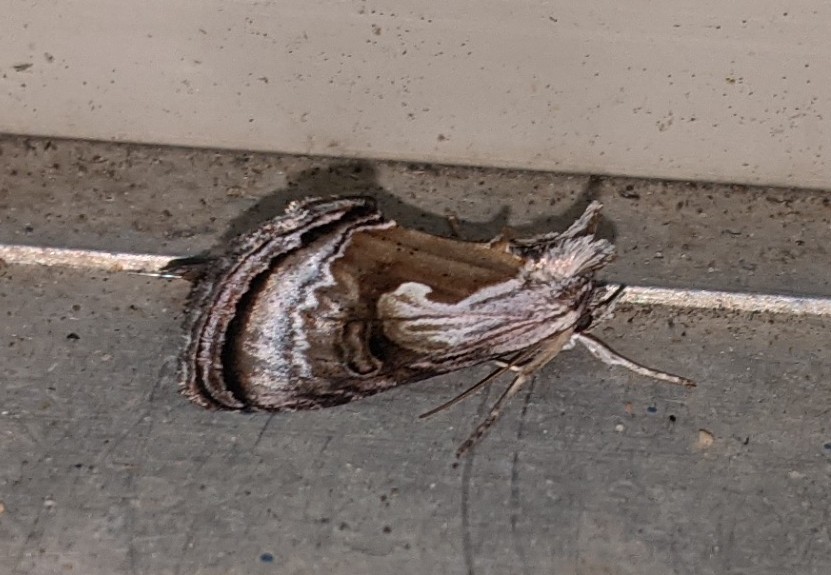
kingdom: Animalia
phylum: Arthropoda
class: Insecta
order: Lepidoptera
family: Noctuidae
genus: Chrysanympha
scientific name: Chrysanympha formosa
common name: Formosa looper moth
